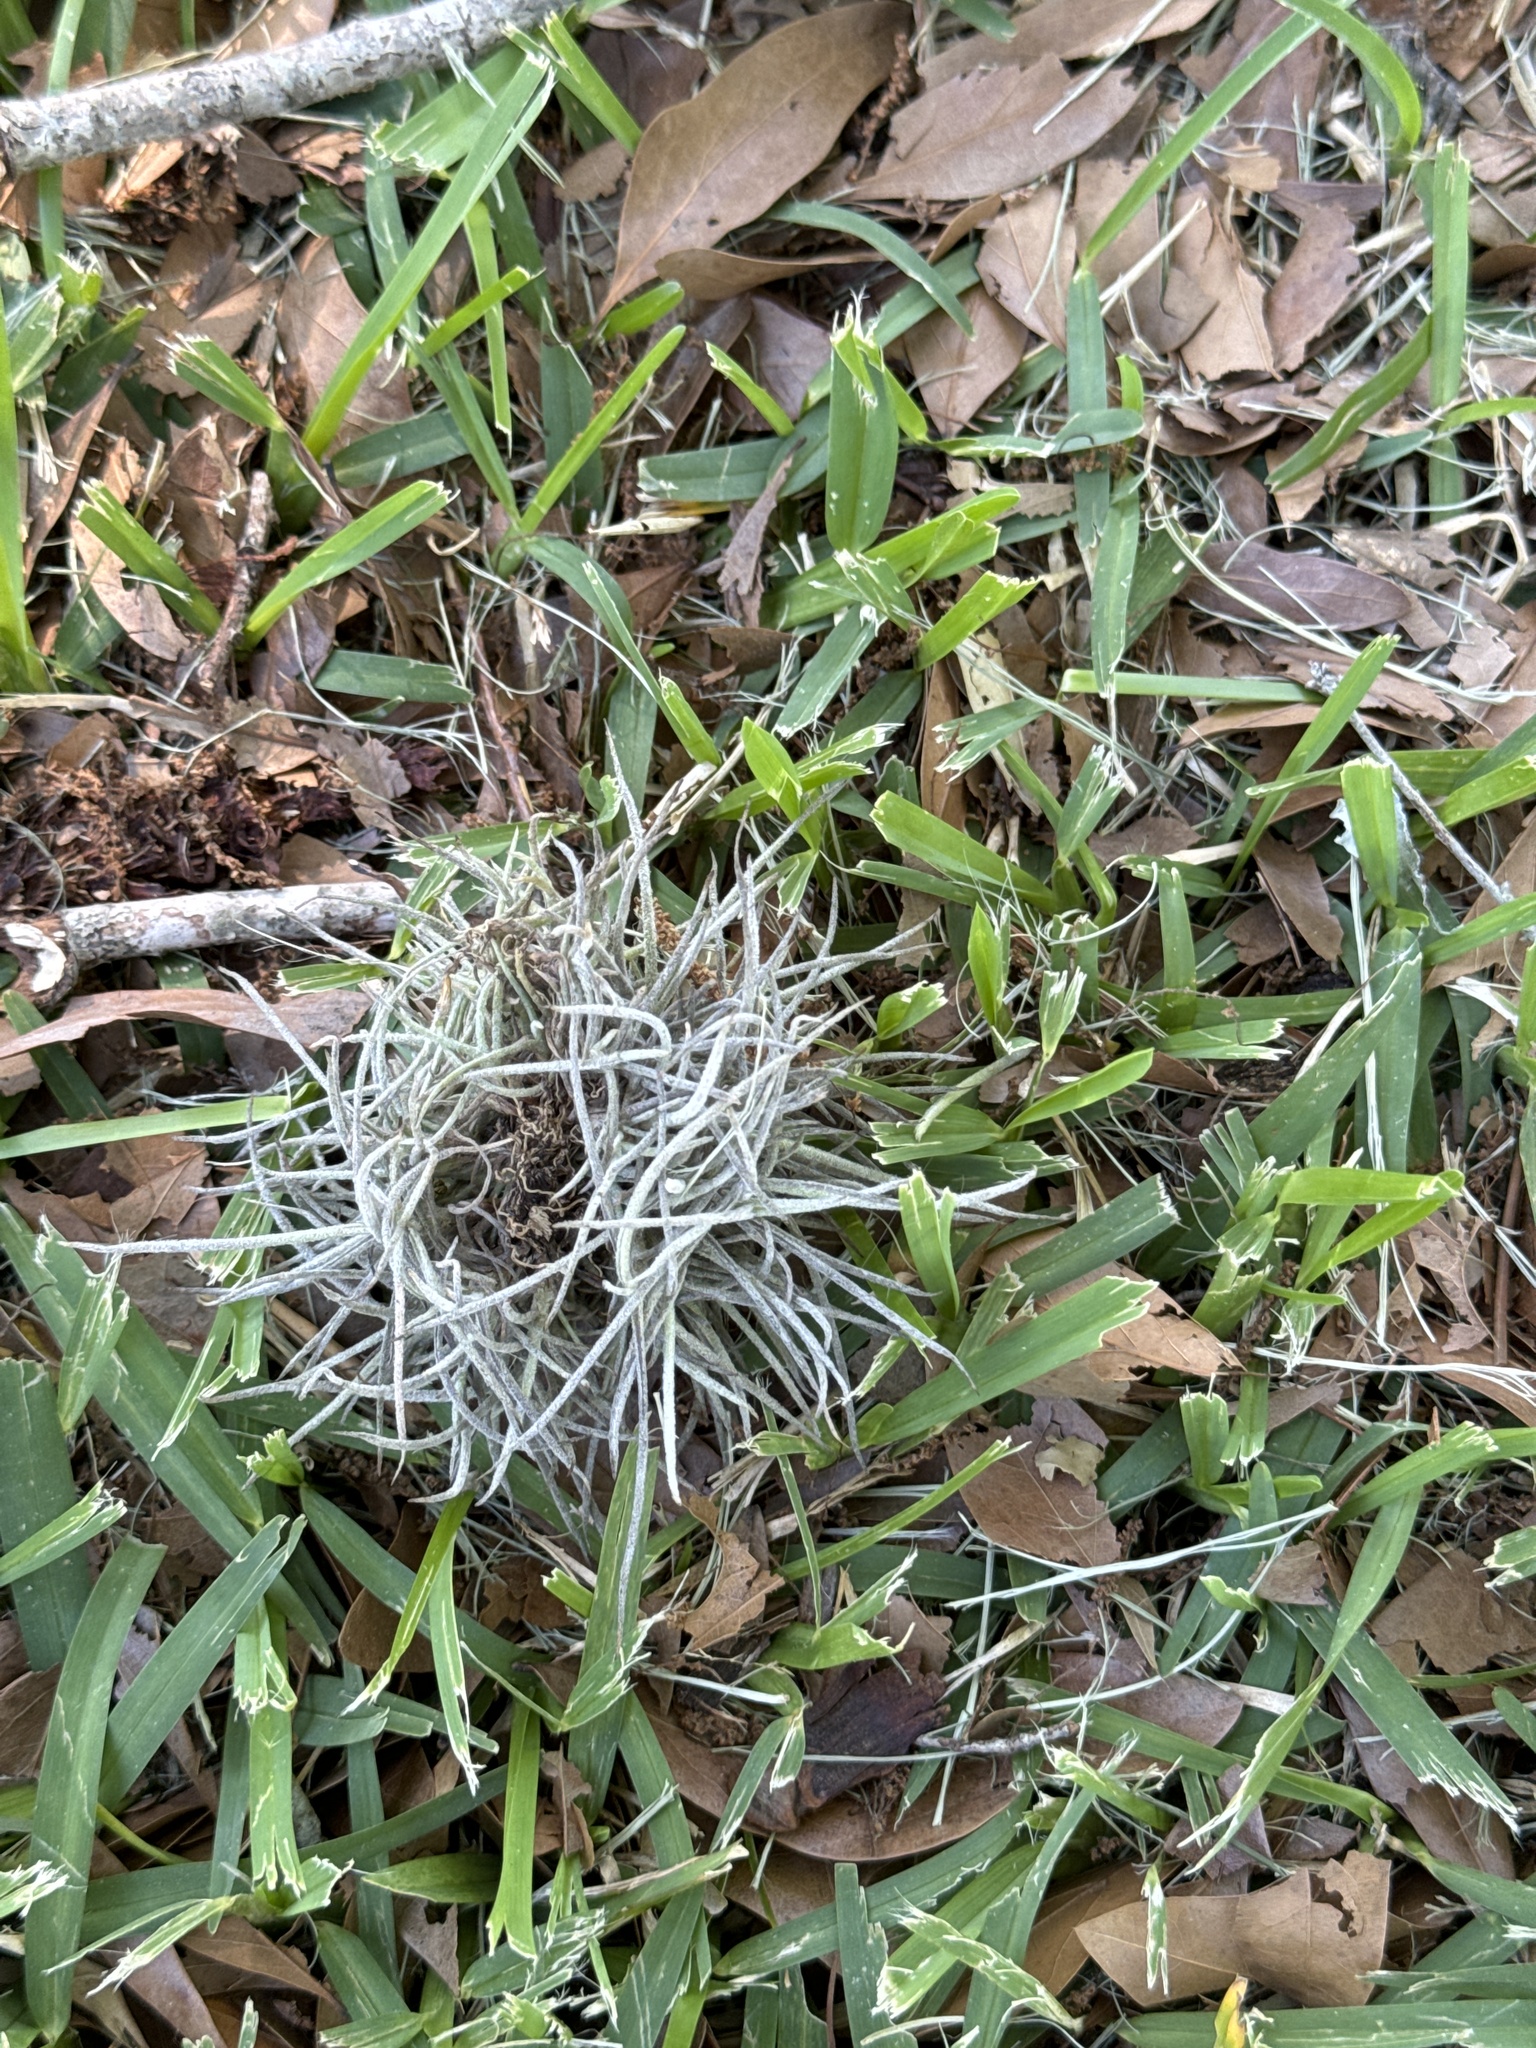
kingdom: Plantae
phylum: Tracheophyta
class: Liliopsida
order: Poales
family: Bromeliaceae
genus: Tillandsia
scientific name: Tillandsia recurvata
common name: Small ballmoss
